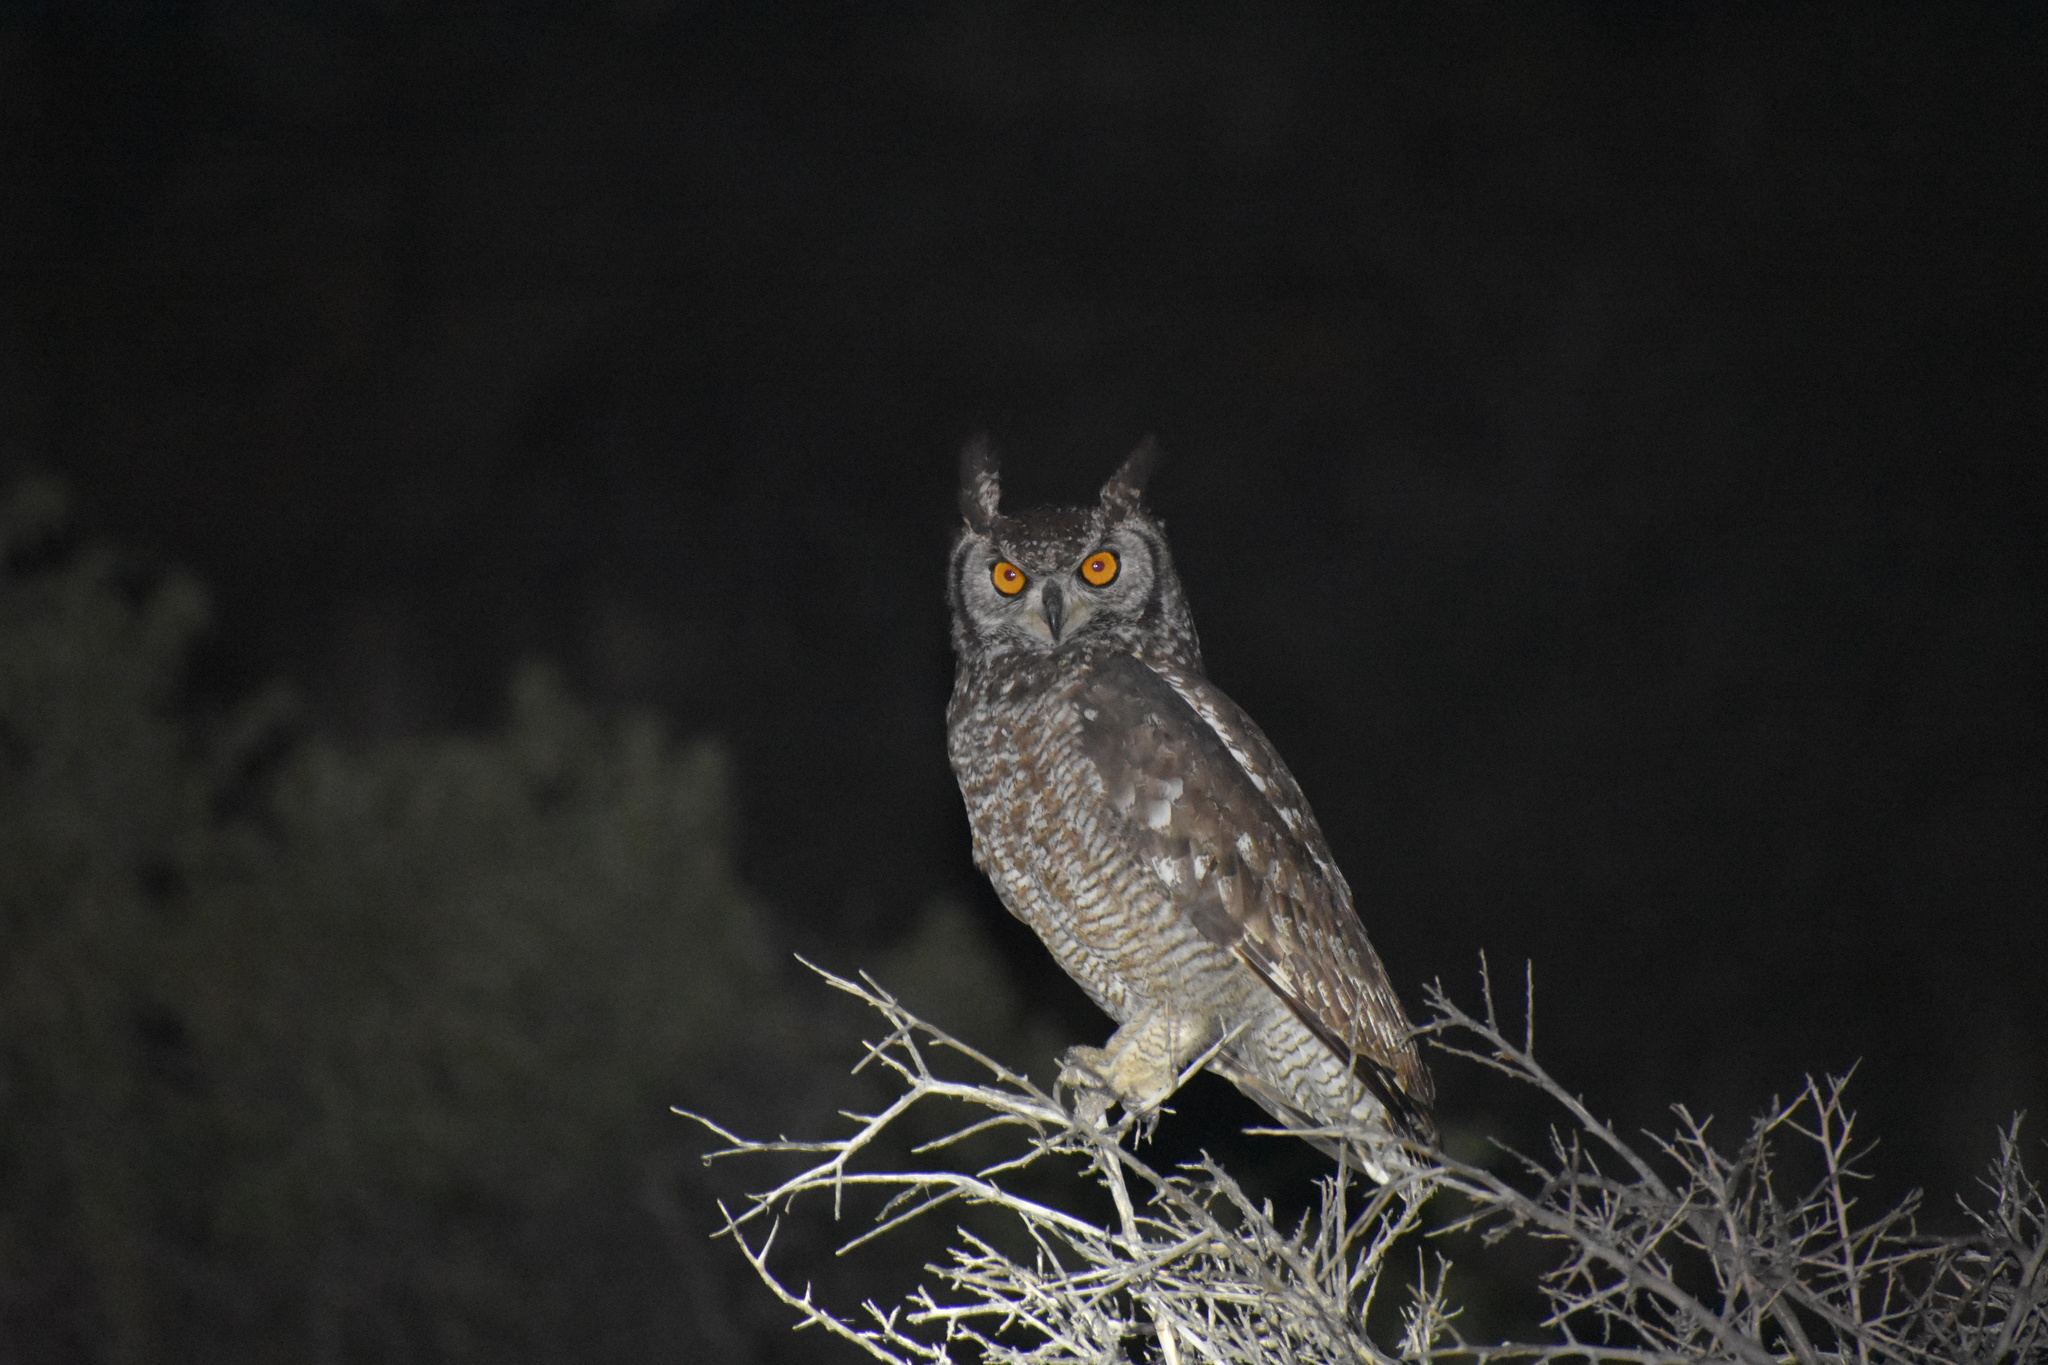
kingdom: Animalia
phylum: Chordata
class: Aves
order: Strigiformes
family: Strigidae
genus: Bubo
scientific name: Bubo africanus
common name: Spotted eagle-owl
